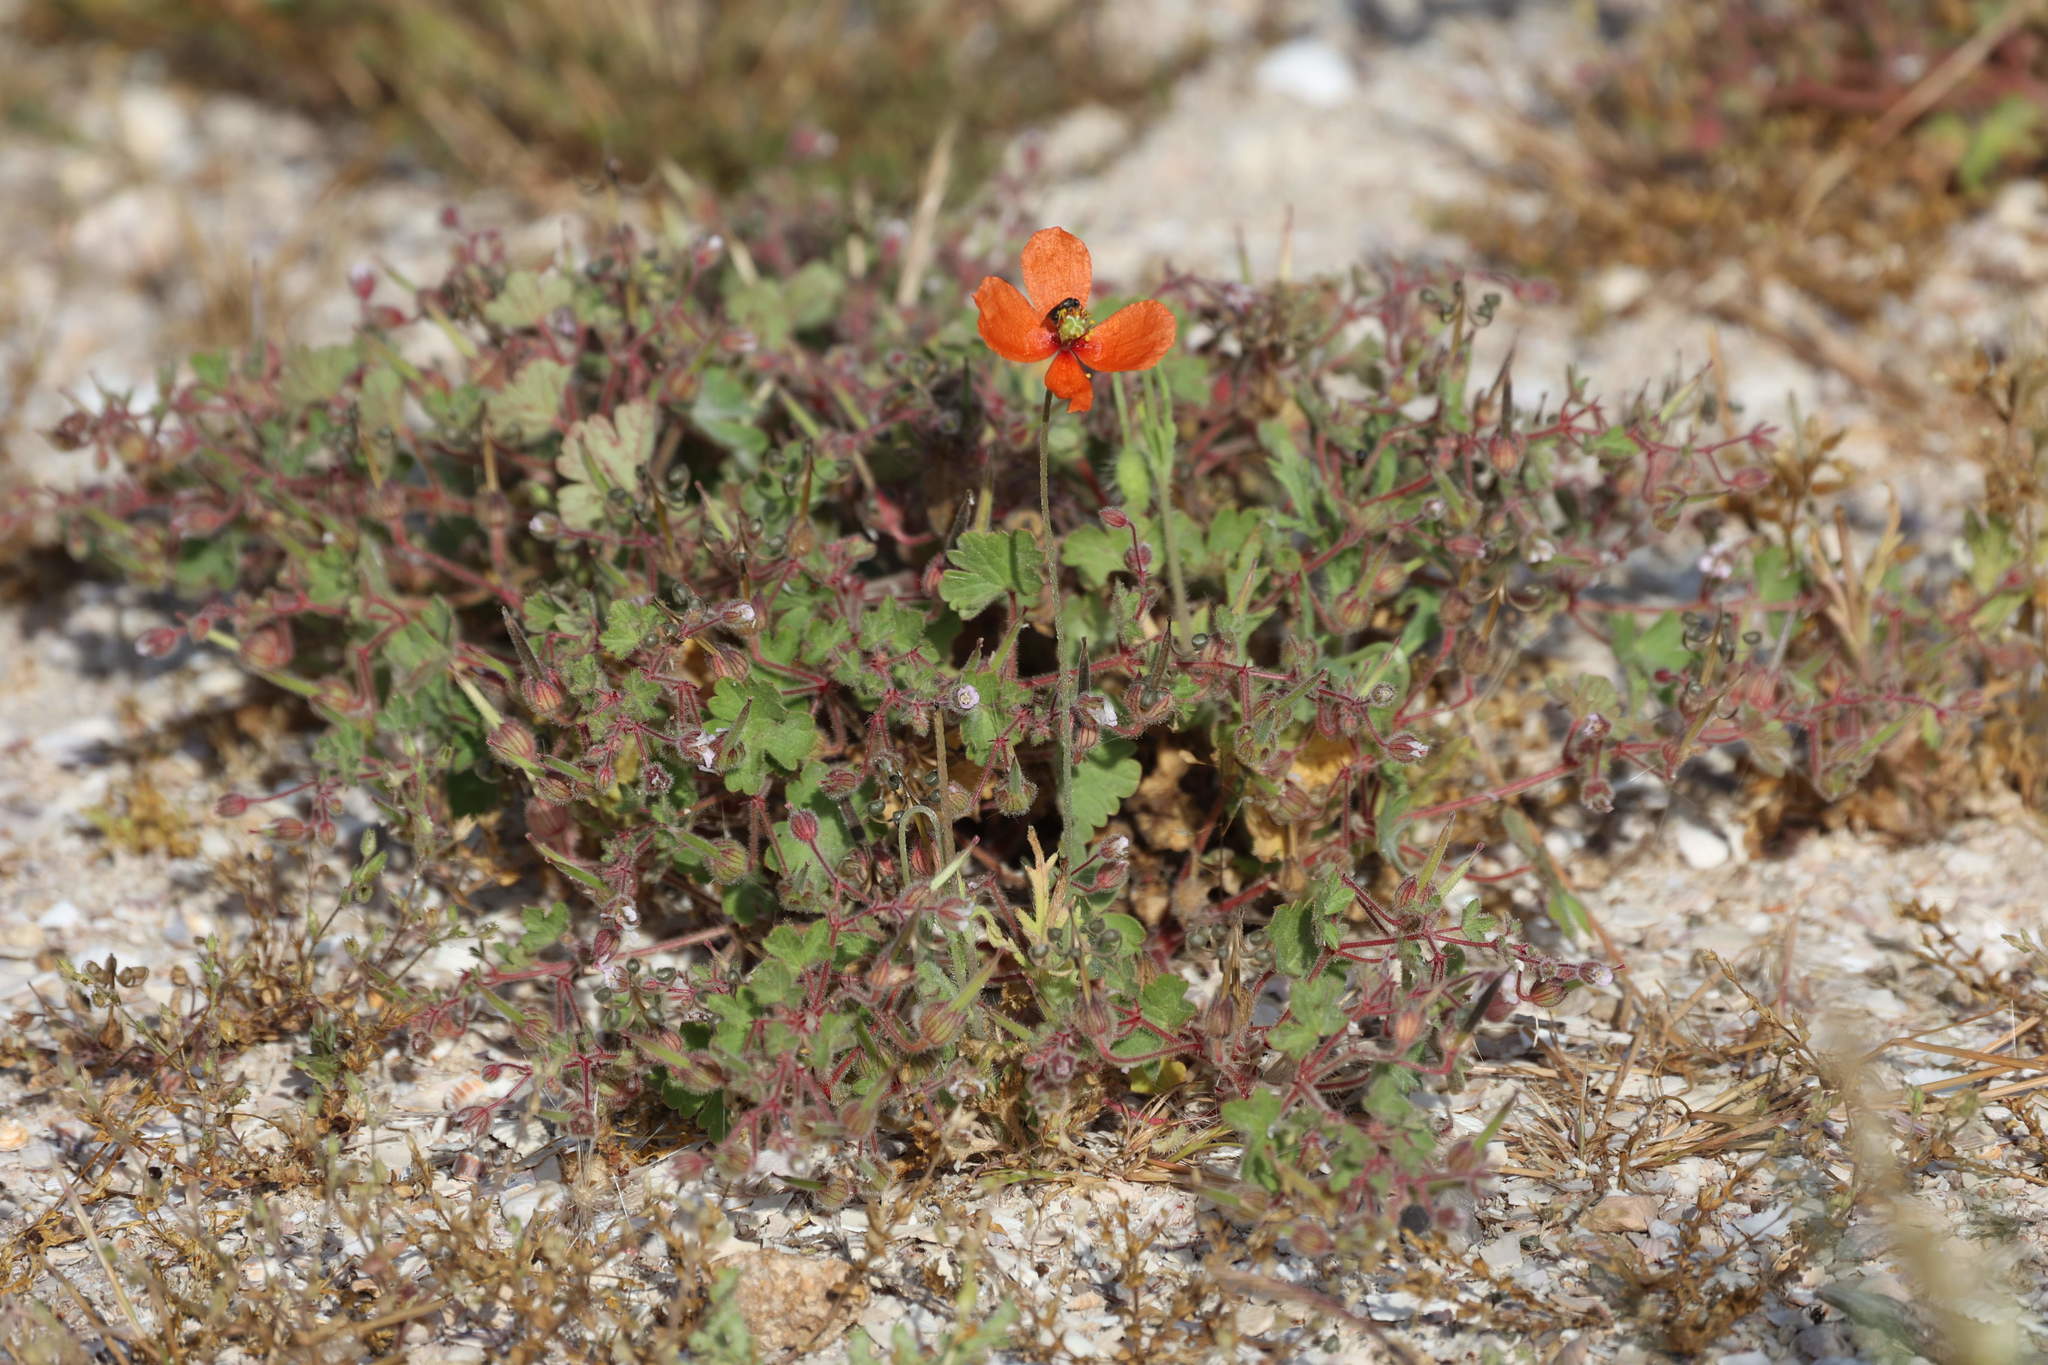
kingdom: Plantae
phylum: Tracheophyta
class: Magnoliopsida
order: Ranunculales
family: Papaveraceae
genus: Papaver
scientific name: Papaver dubium
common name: Long-headed poppy
